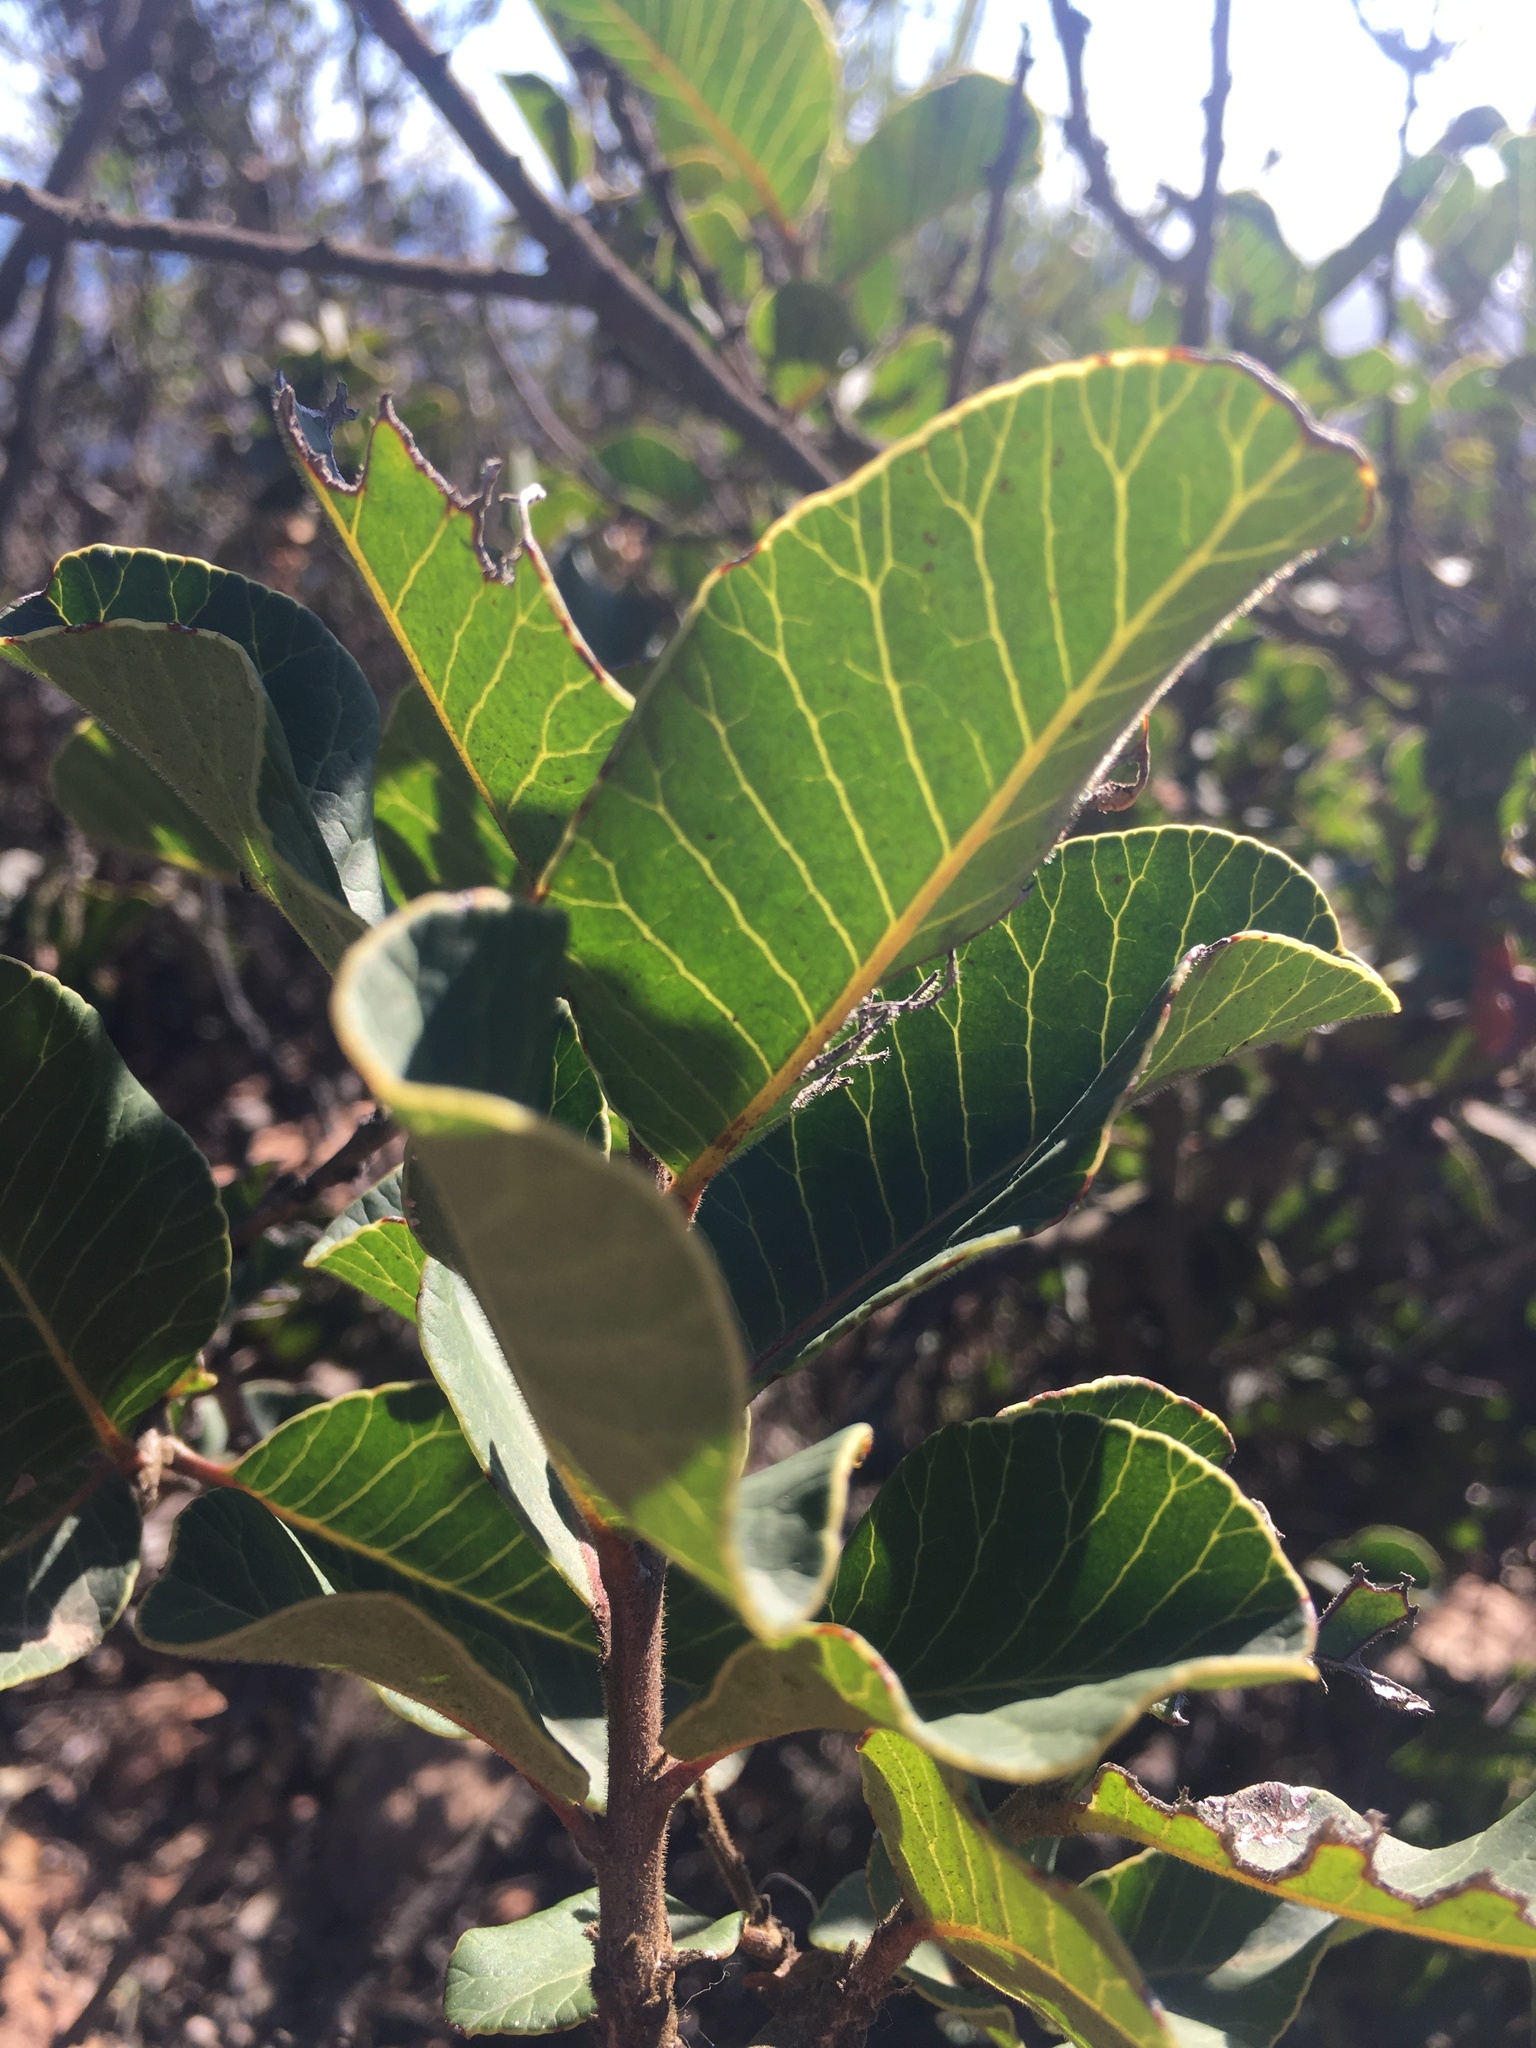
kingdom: Plantae
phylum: Tracheophyta
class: Magnoliopsida
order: Sapindales
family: Anacardiaceae
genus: Lithraea
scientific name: Lithraea caustica
